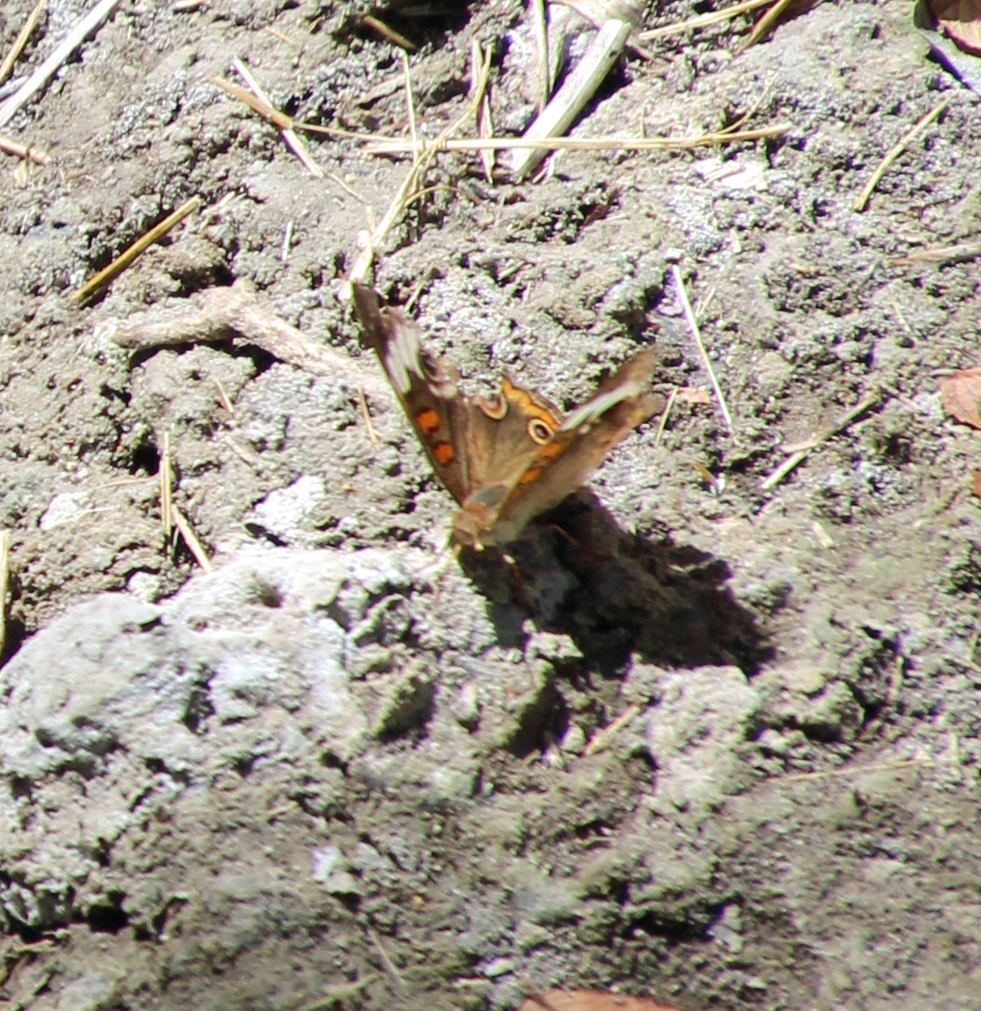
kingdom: Animalia
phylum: Arthropoda
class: Insecta
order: Lepidoptera
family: Nymphalidae
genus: Junonia
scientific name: Junonia coenia
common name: Common buckeye
